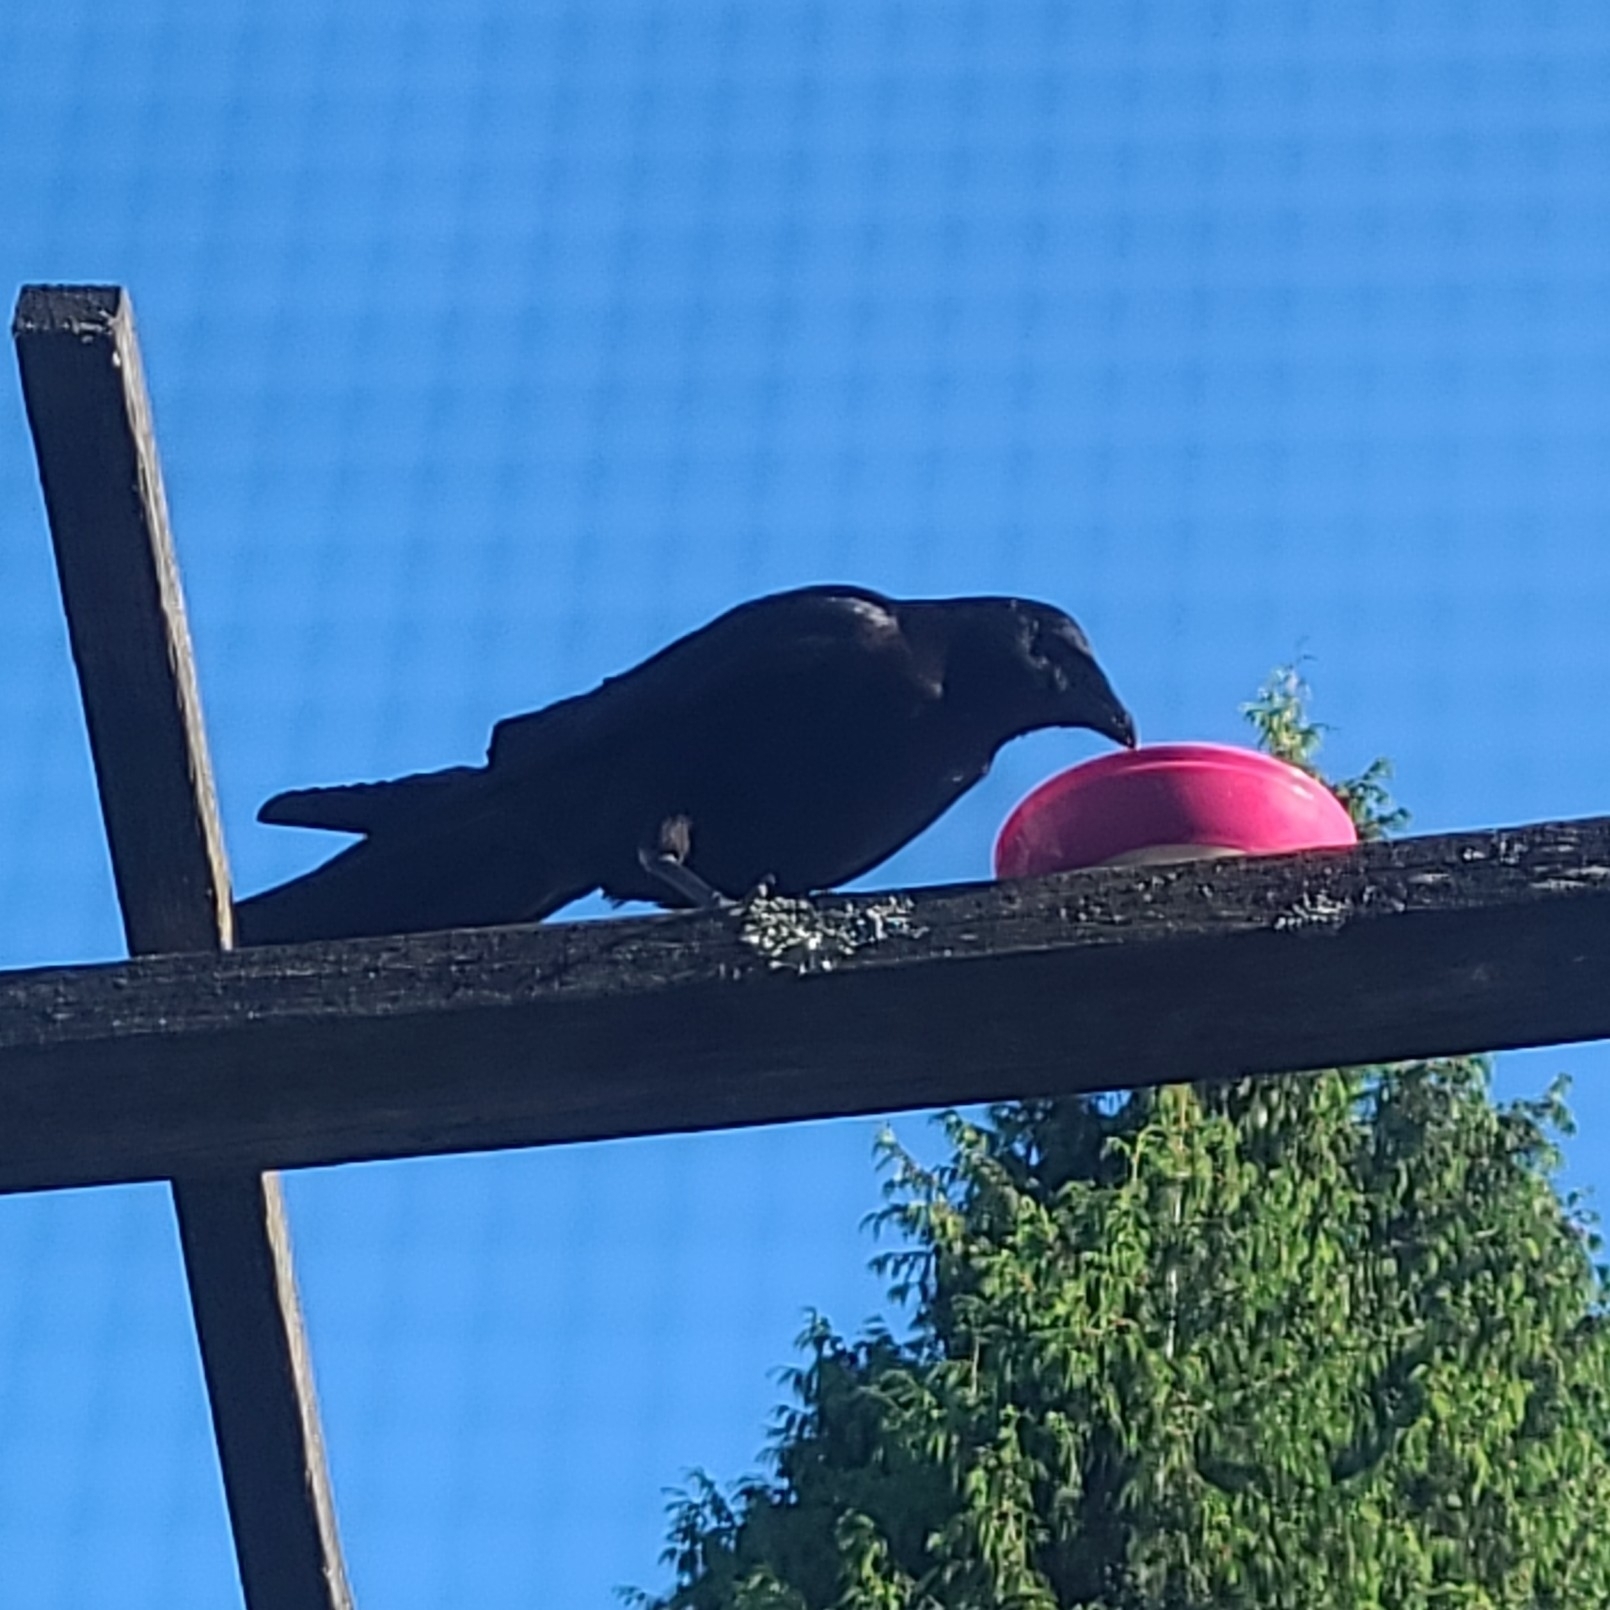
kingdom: Animalia
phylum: Chordata
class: Aves
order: Passeriformes
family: Corvidae
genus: Corvus
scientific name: Corvus brachyrhynchos
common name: American crow
